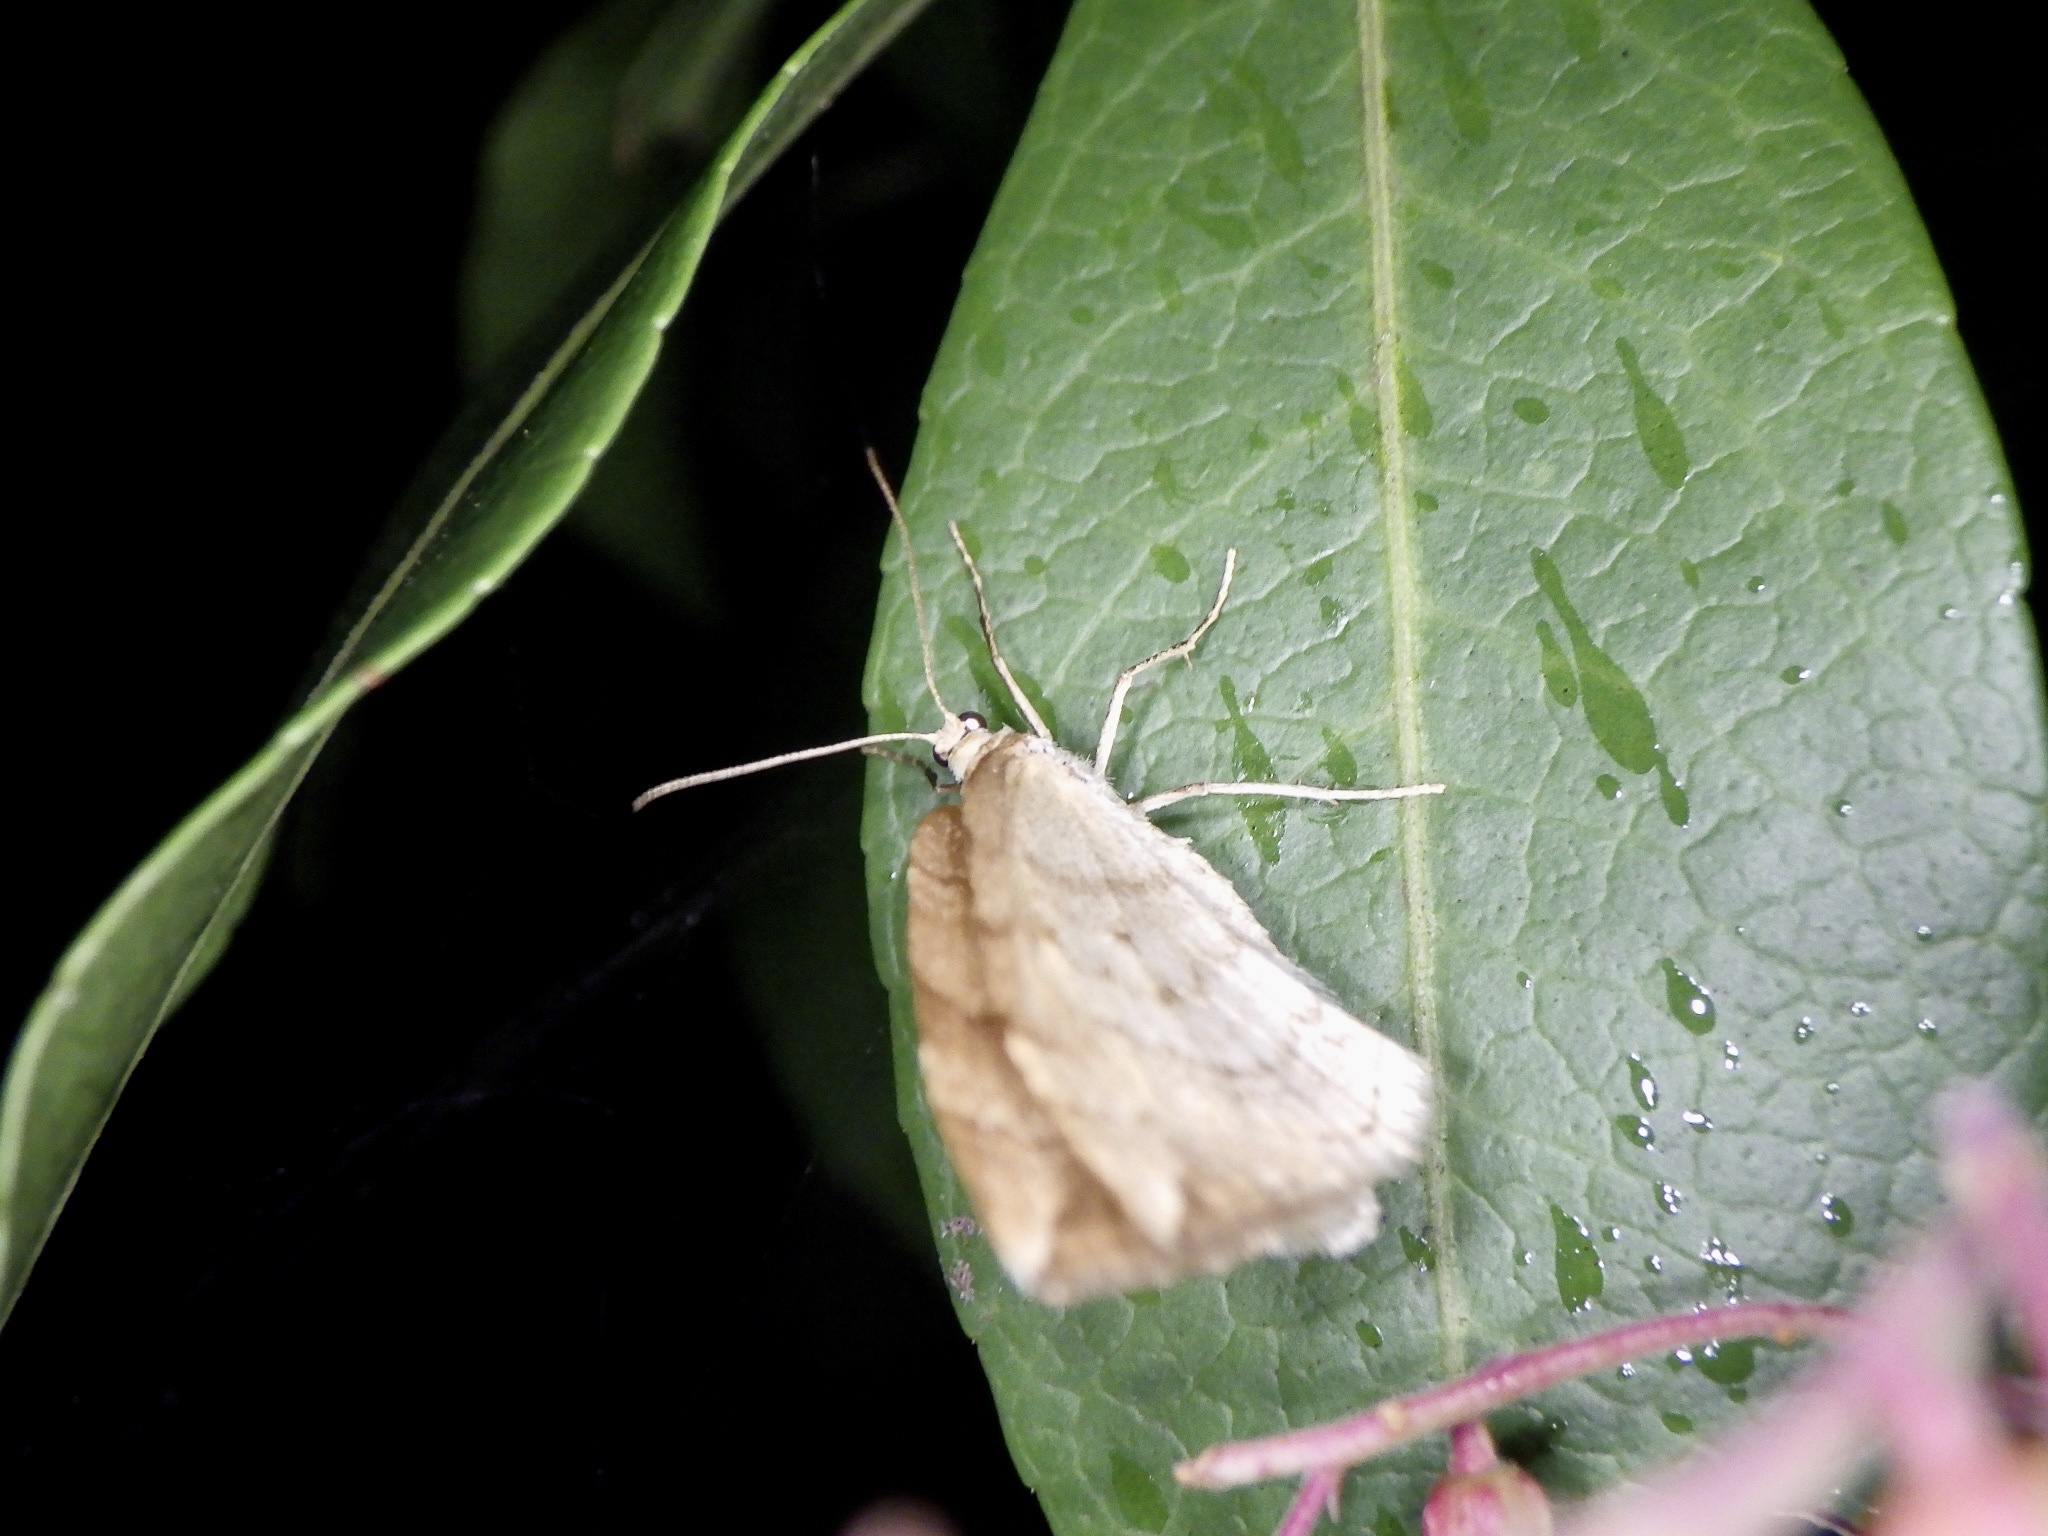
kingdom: Animalia
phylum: Arthropoda
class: Insecta
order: Lepidoptera
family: Geometridae
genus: Nothoporinia
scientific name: Nothoporinia mediolineata
